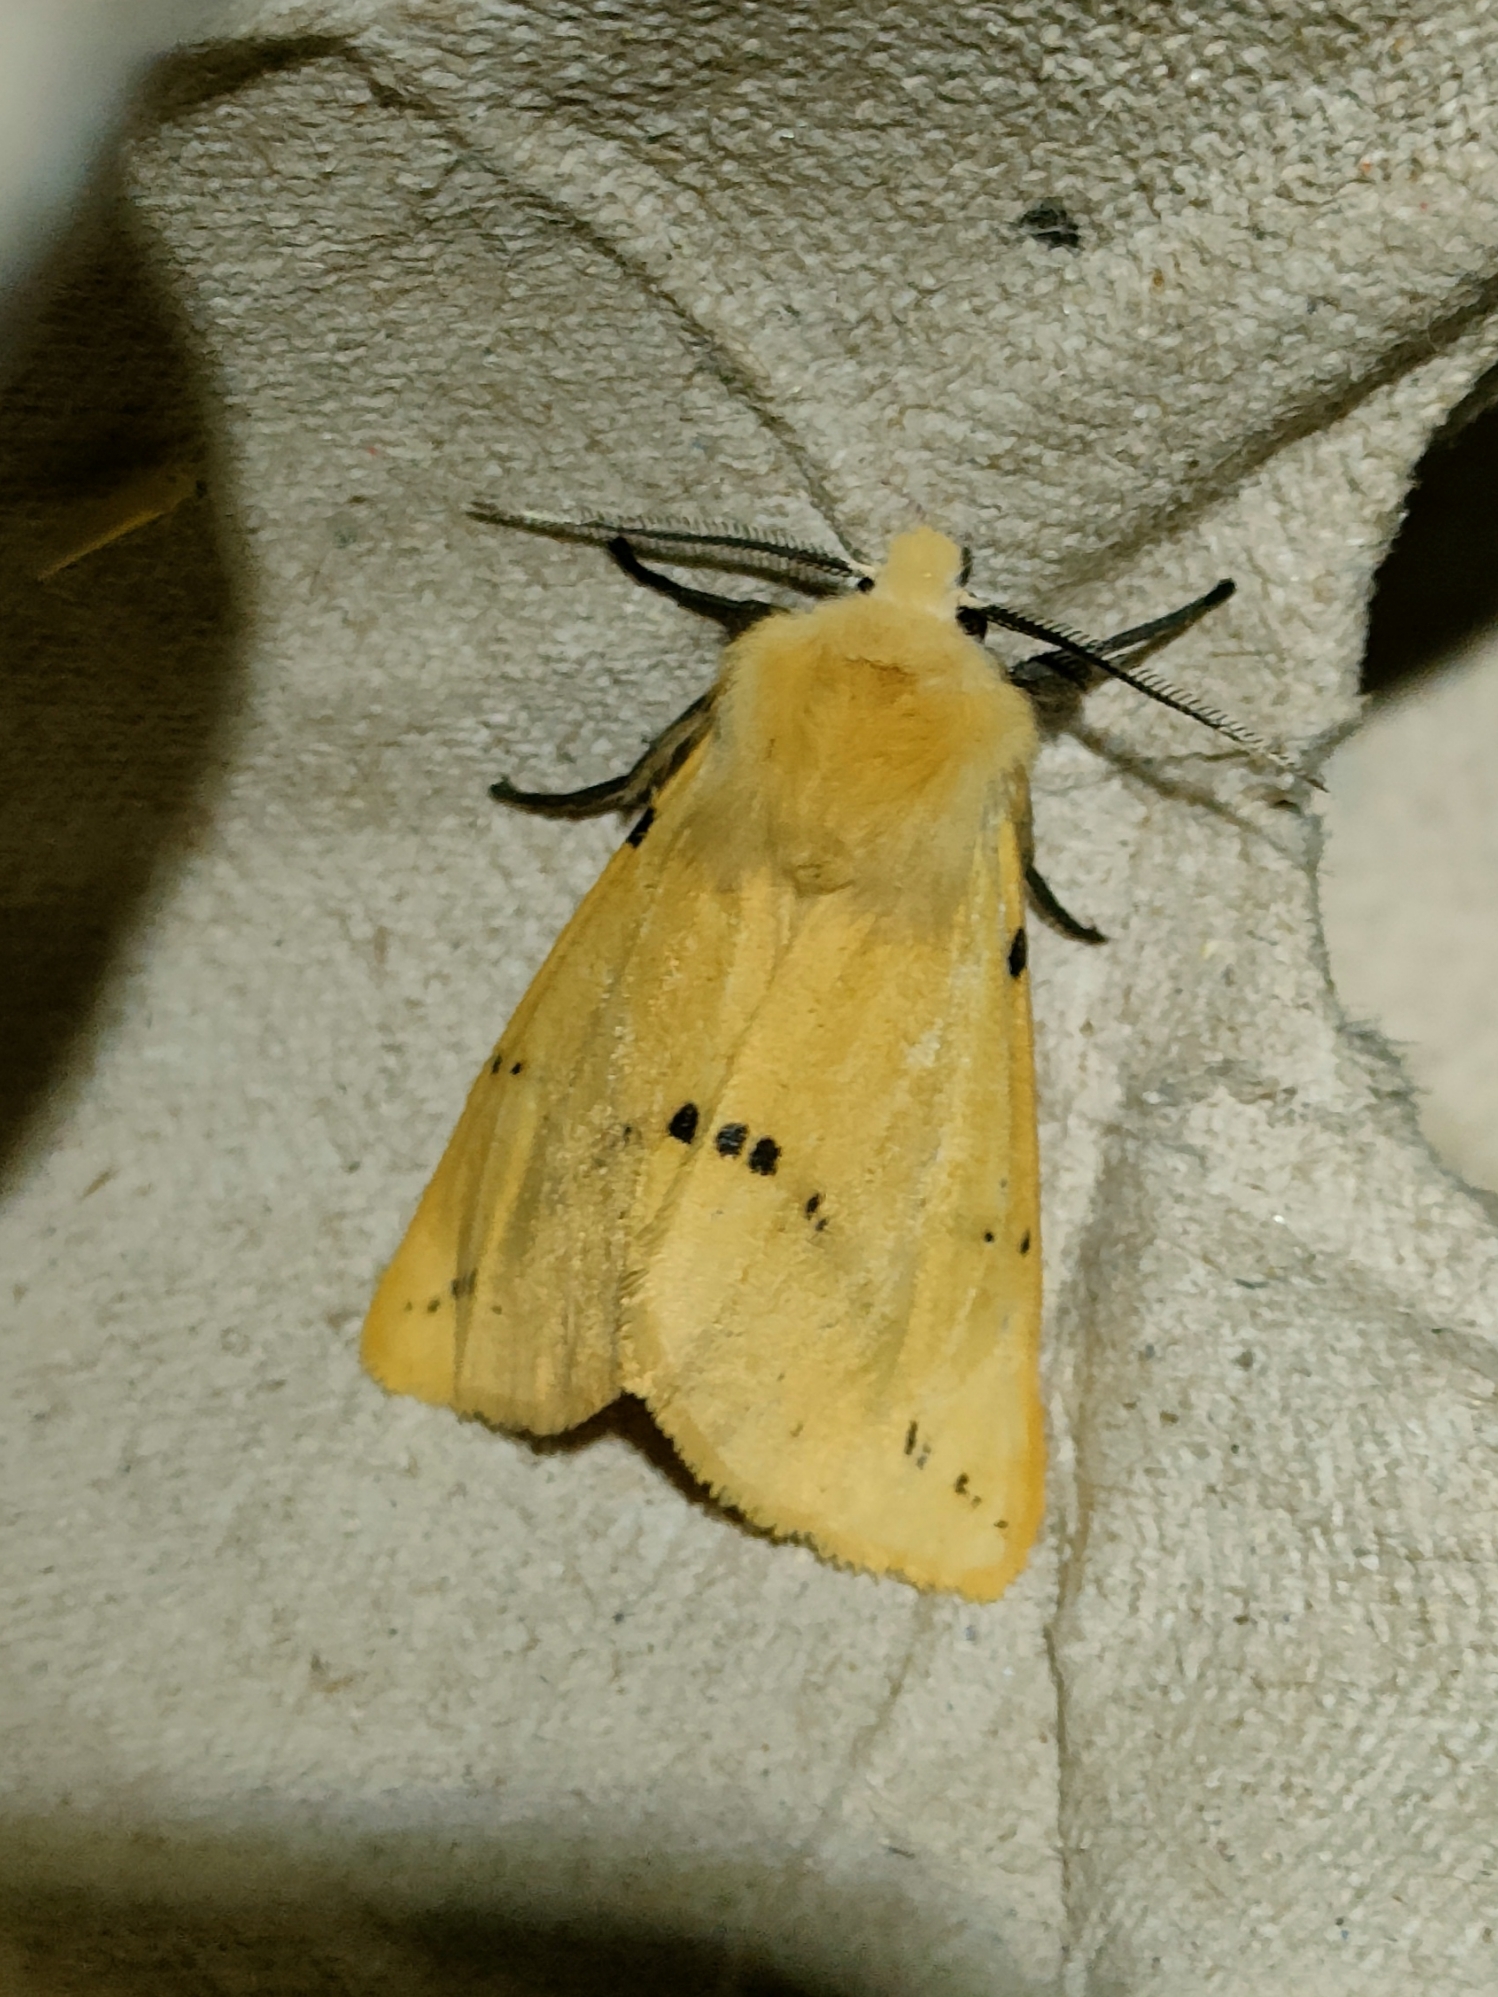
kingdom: Animalia
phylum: Arthropoda
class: Insecta
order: Lepidoptera
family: Erebidae
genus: Spilarctia
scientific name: Spilarctia lutea
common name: Buff ermine
